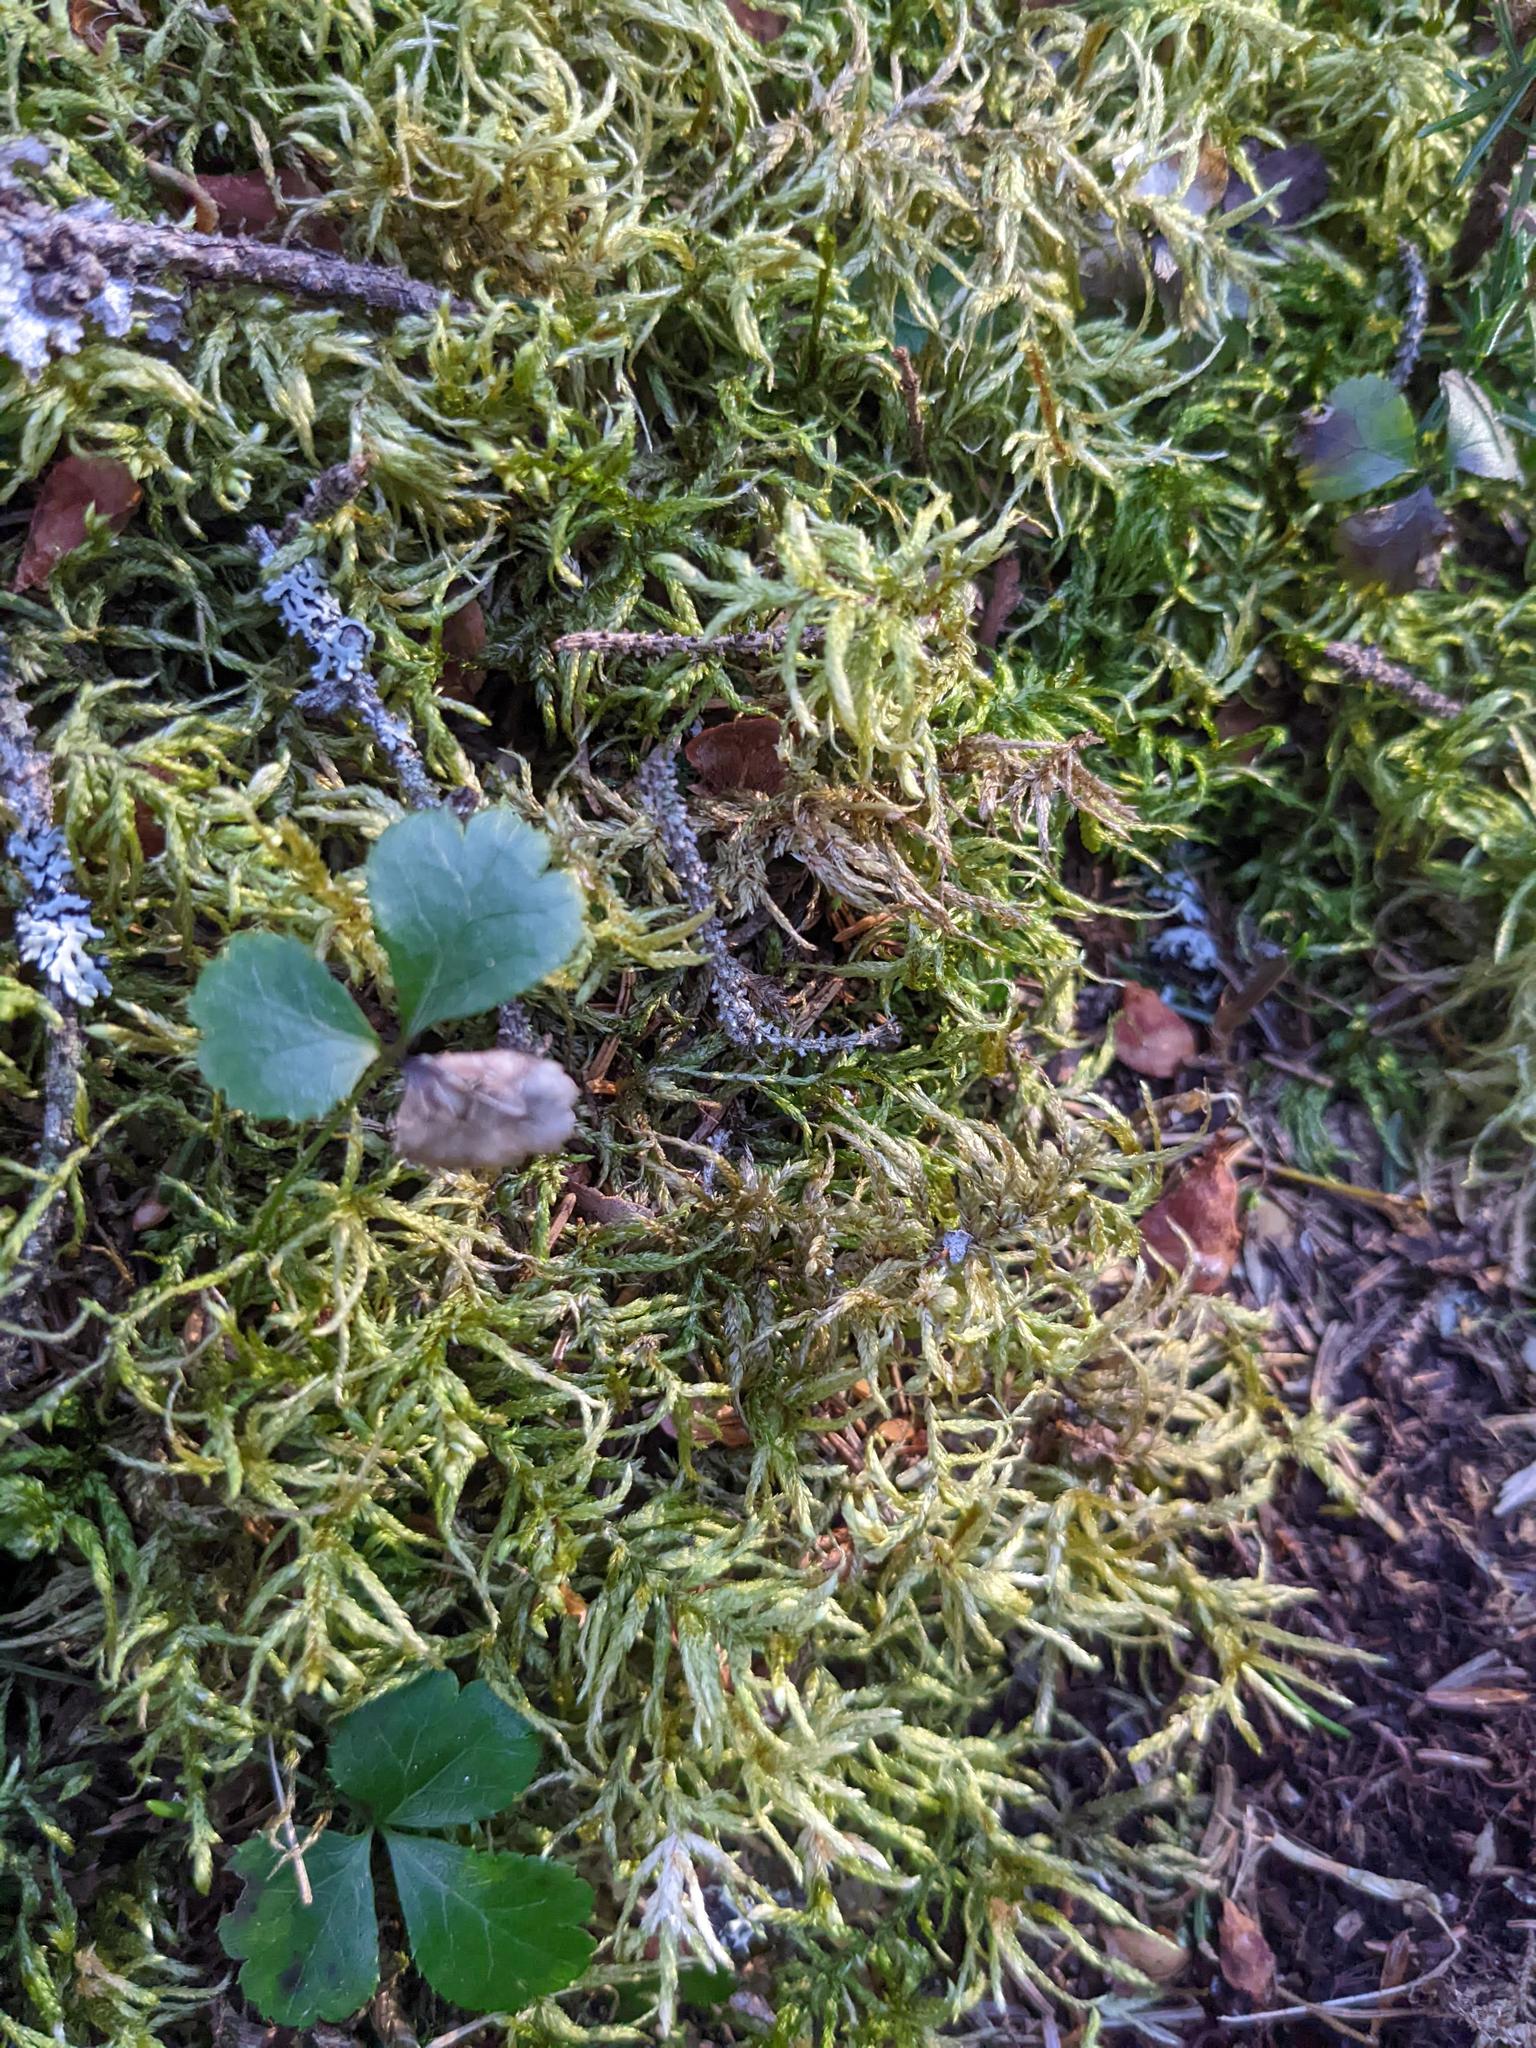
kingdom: Plantae
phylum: Tracheophyta
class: Magnoliopsida
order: Ranunculales
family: Ranunculaceae
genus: Coptis
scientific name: Coptis trifolia
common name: Canker-root
